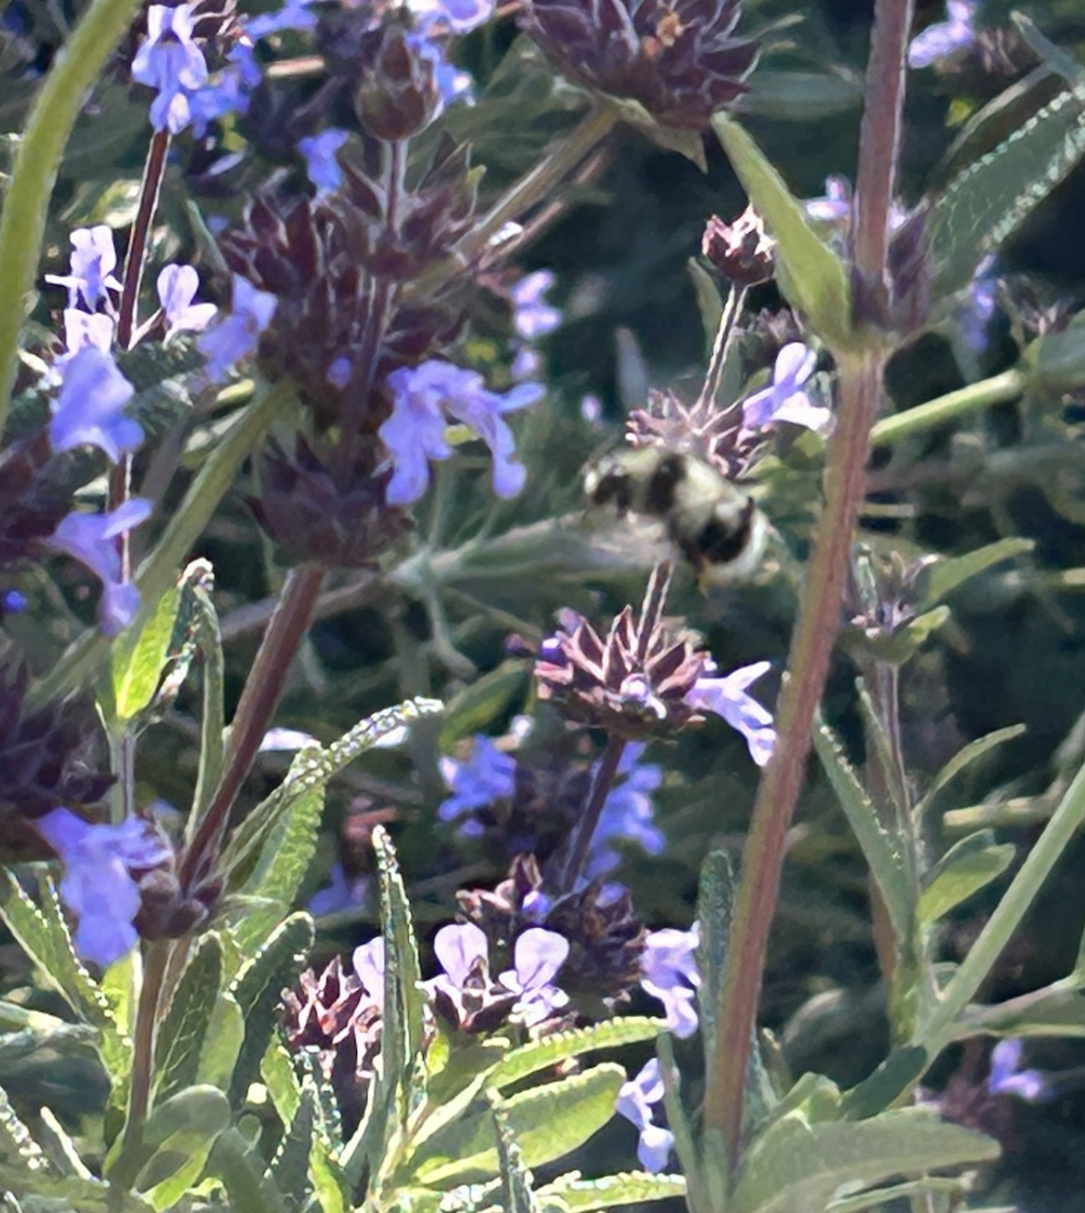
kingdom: Animalia
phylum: Arthropoda
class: Insecta
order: Hymenoptera
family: Apidae
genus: Bombus
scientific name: Bombus melanopygus
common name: Black tail bumble bee
